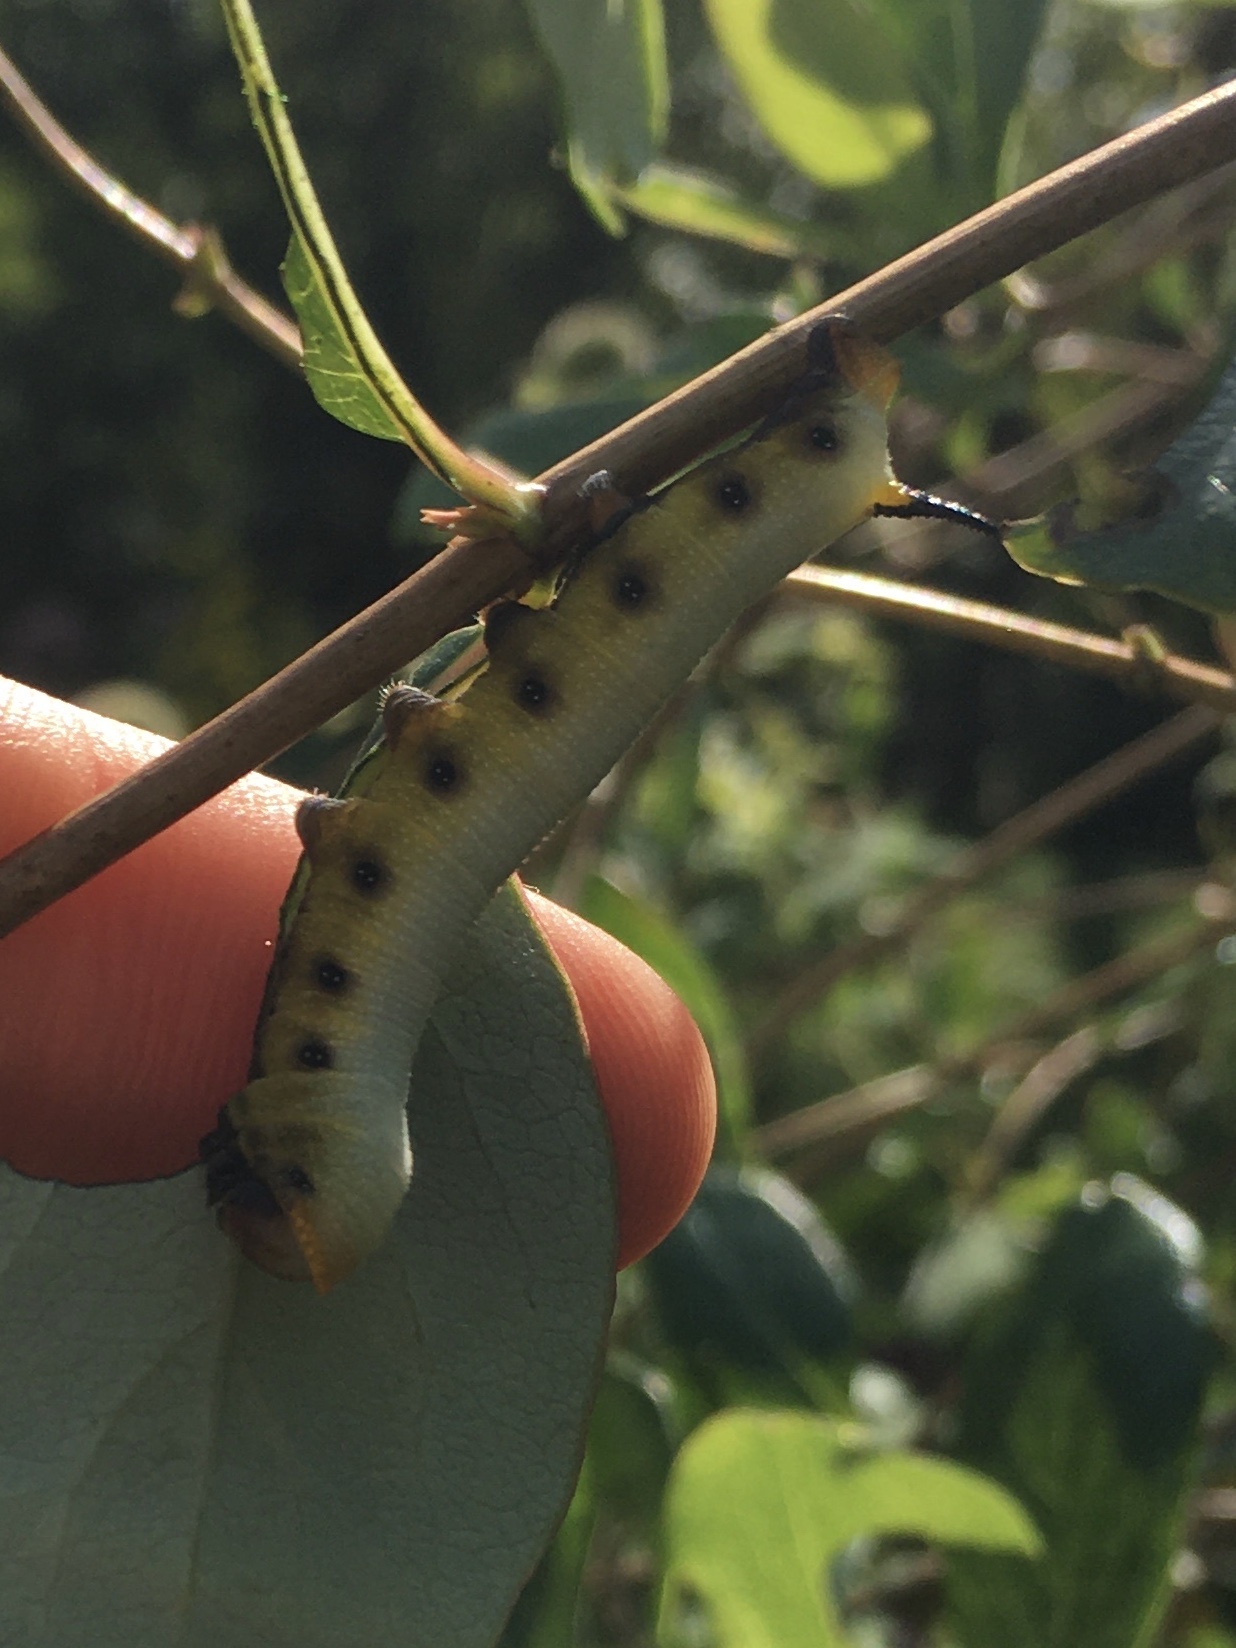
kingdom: Animalia
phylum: Arthropoda
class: Insecta
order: Lepidoptera
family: Sphingidae
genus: Hemaris
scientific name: Hemaris diffinis
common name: Bumblebee moth
